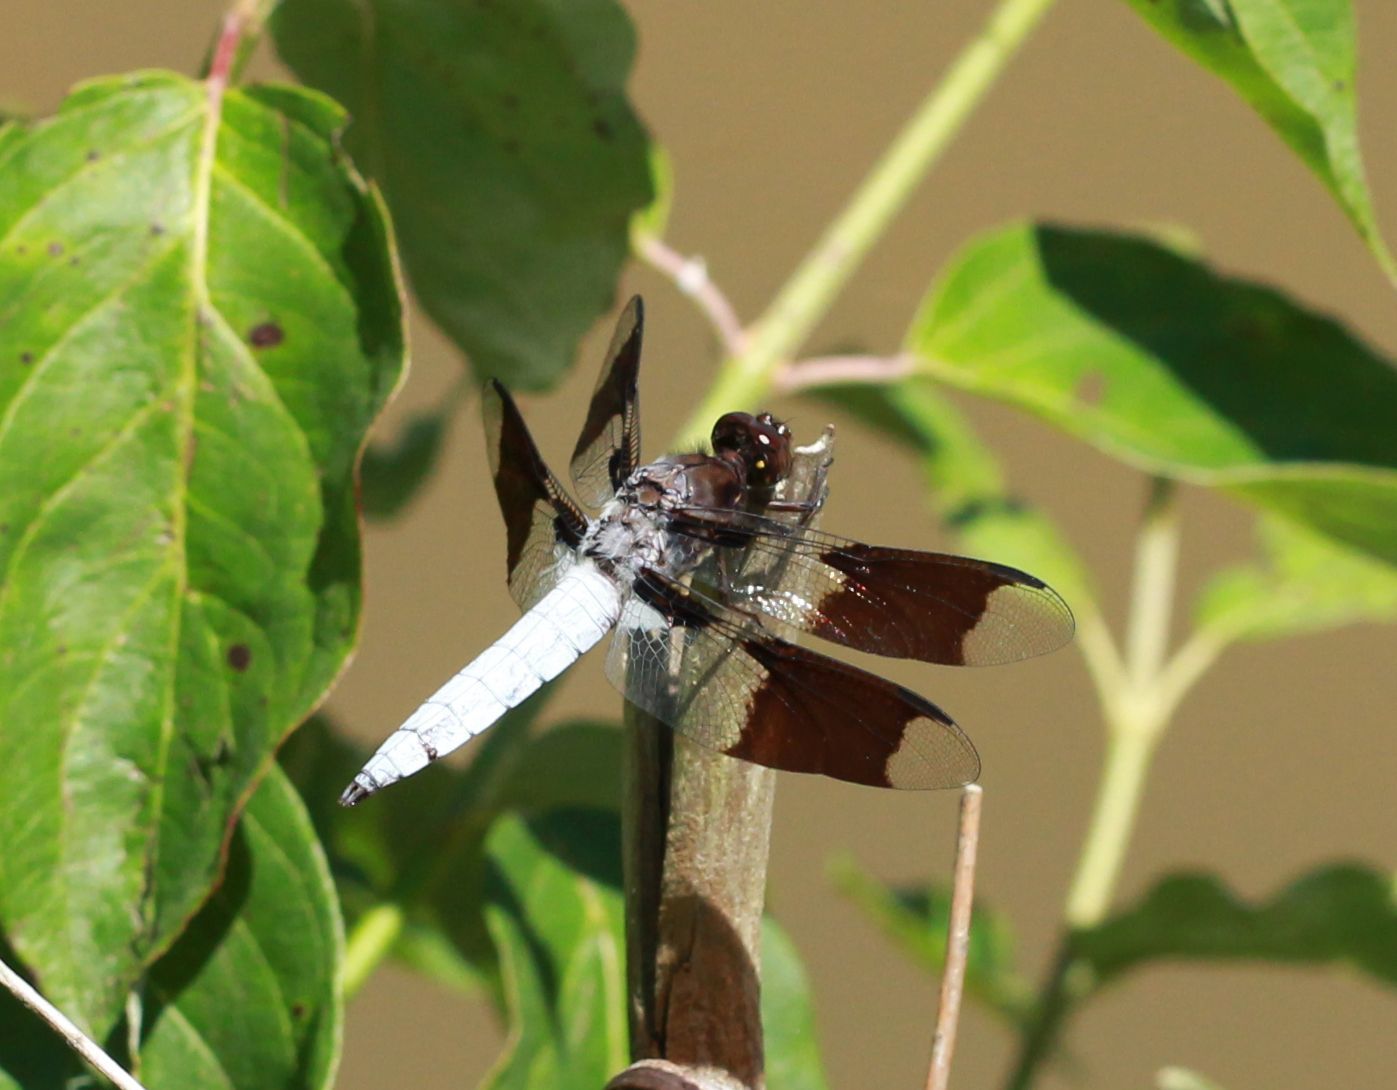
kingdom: Animalia
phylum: Arthropoda
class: Insecta
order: Odonata
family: Libellulidae
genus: Plathemis
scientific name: Plathemis lydia
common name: Common whitetail
